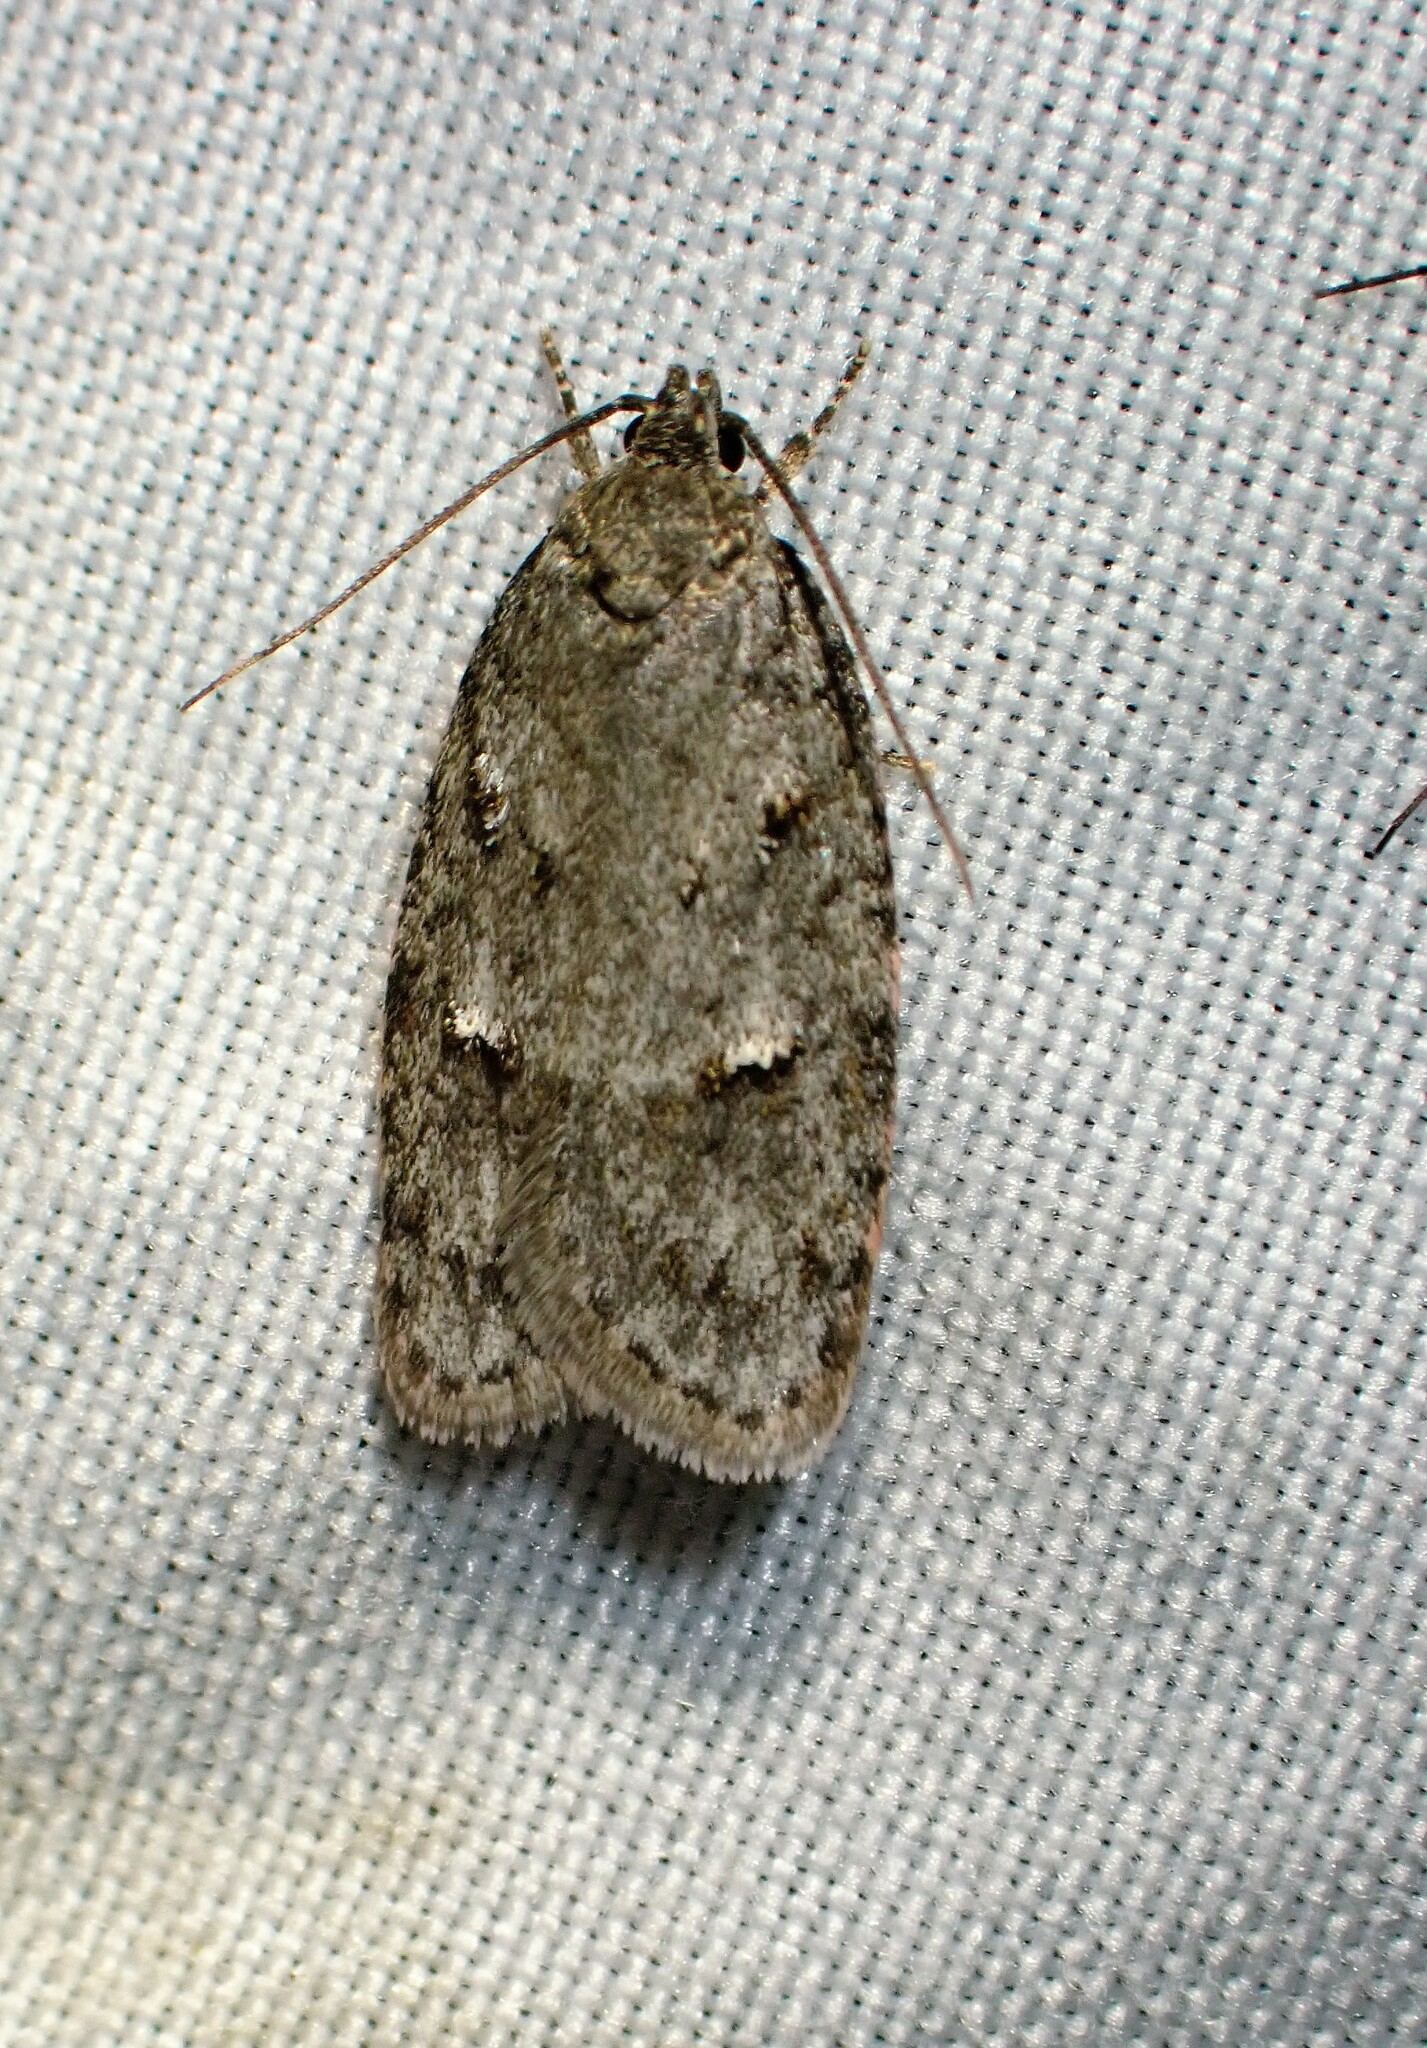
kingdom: Animalia
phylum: Arthropoda
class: Insecta
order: Lepidoptera
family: Depressariidae
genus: Bibarrambla
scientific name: Bibarrambla allenella
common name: Bog bibarrambla moth
